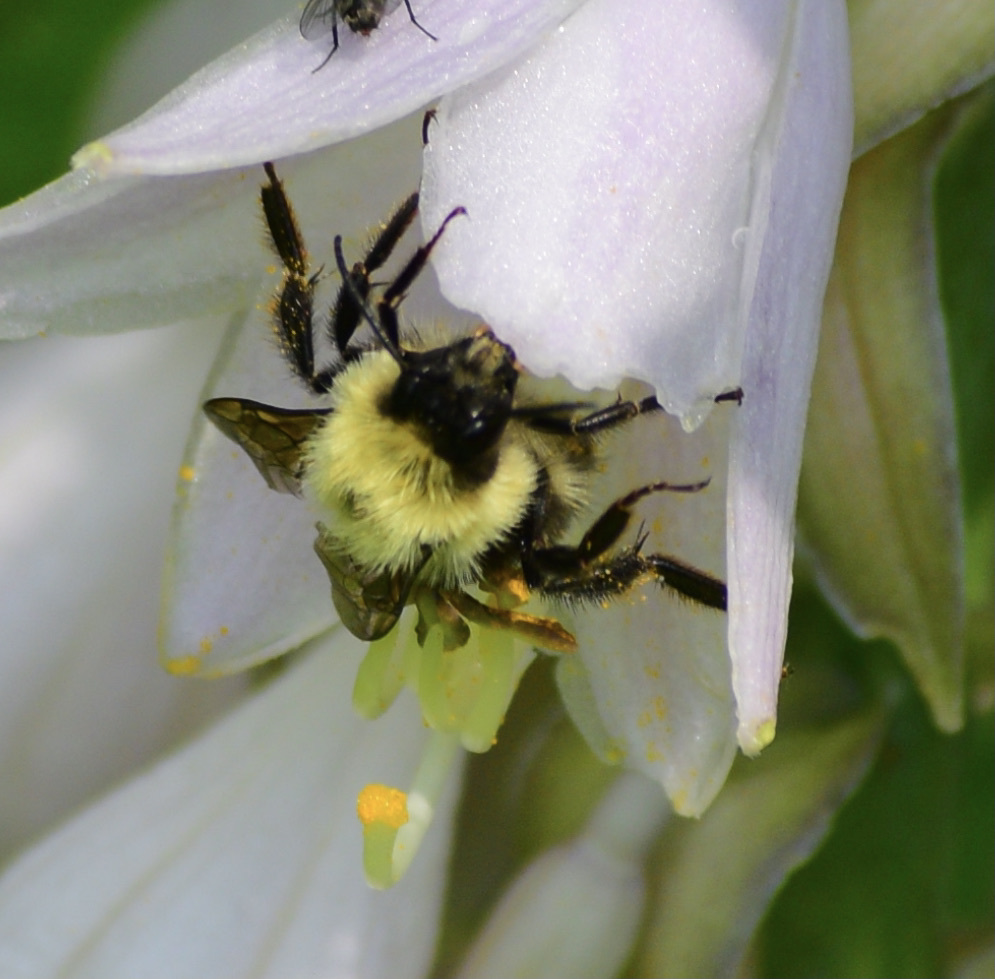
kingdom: Animalia
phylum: Arthropoda
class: Insecta
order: Hymenoptera
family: Apidae
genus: Bombus
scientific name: Bombus bimaculatus
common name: Two-spotted bumble bee
